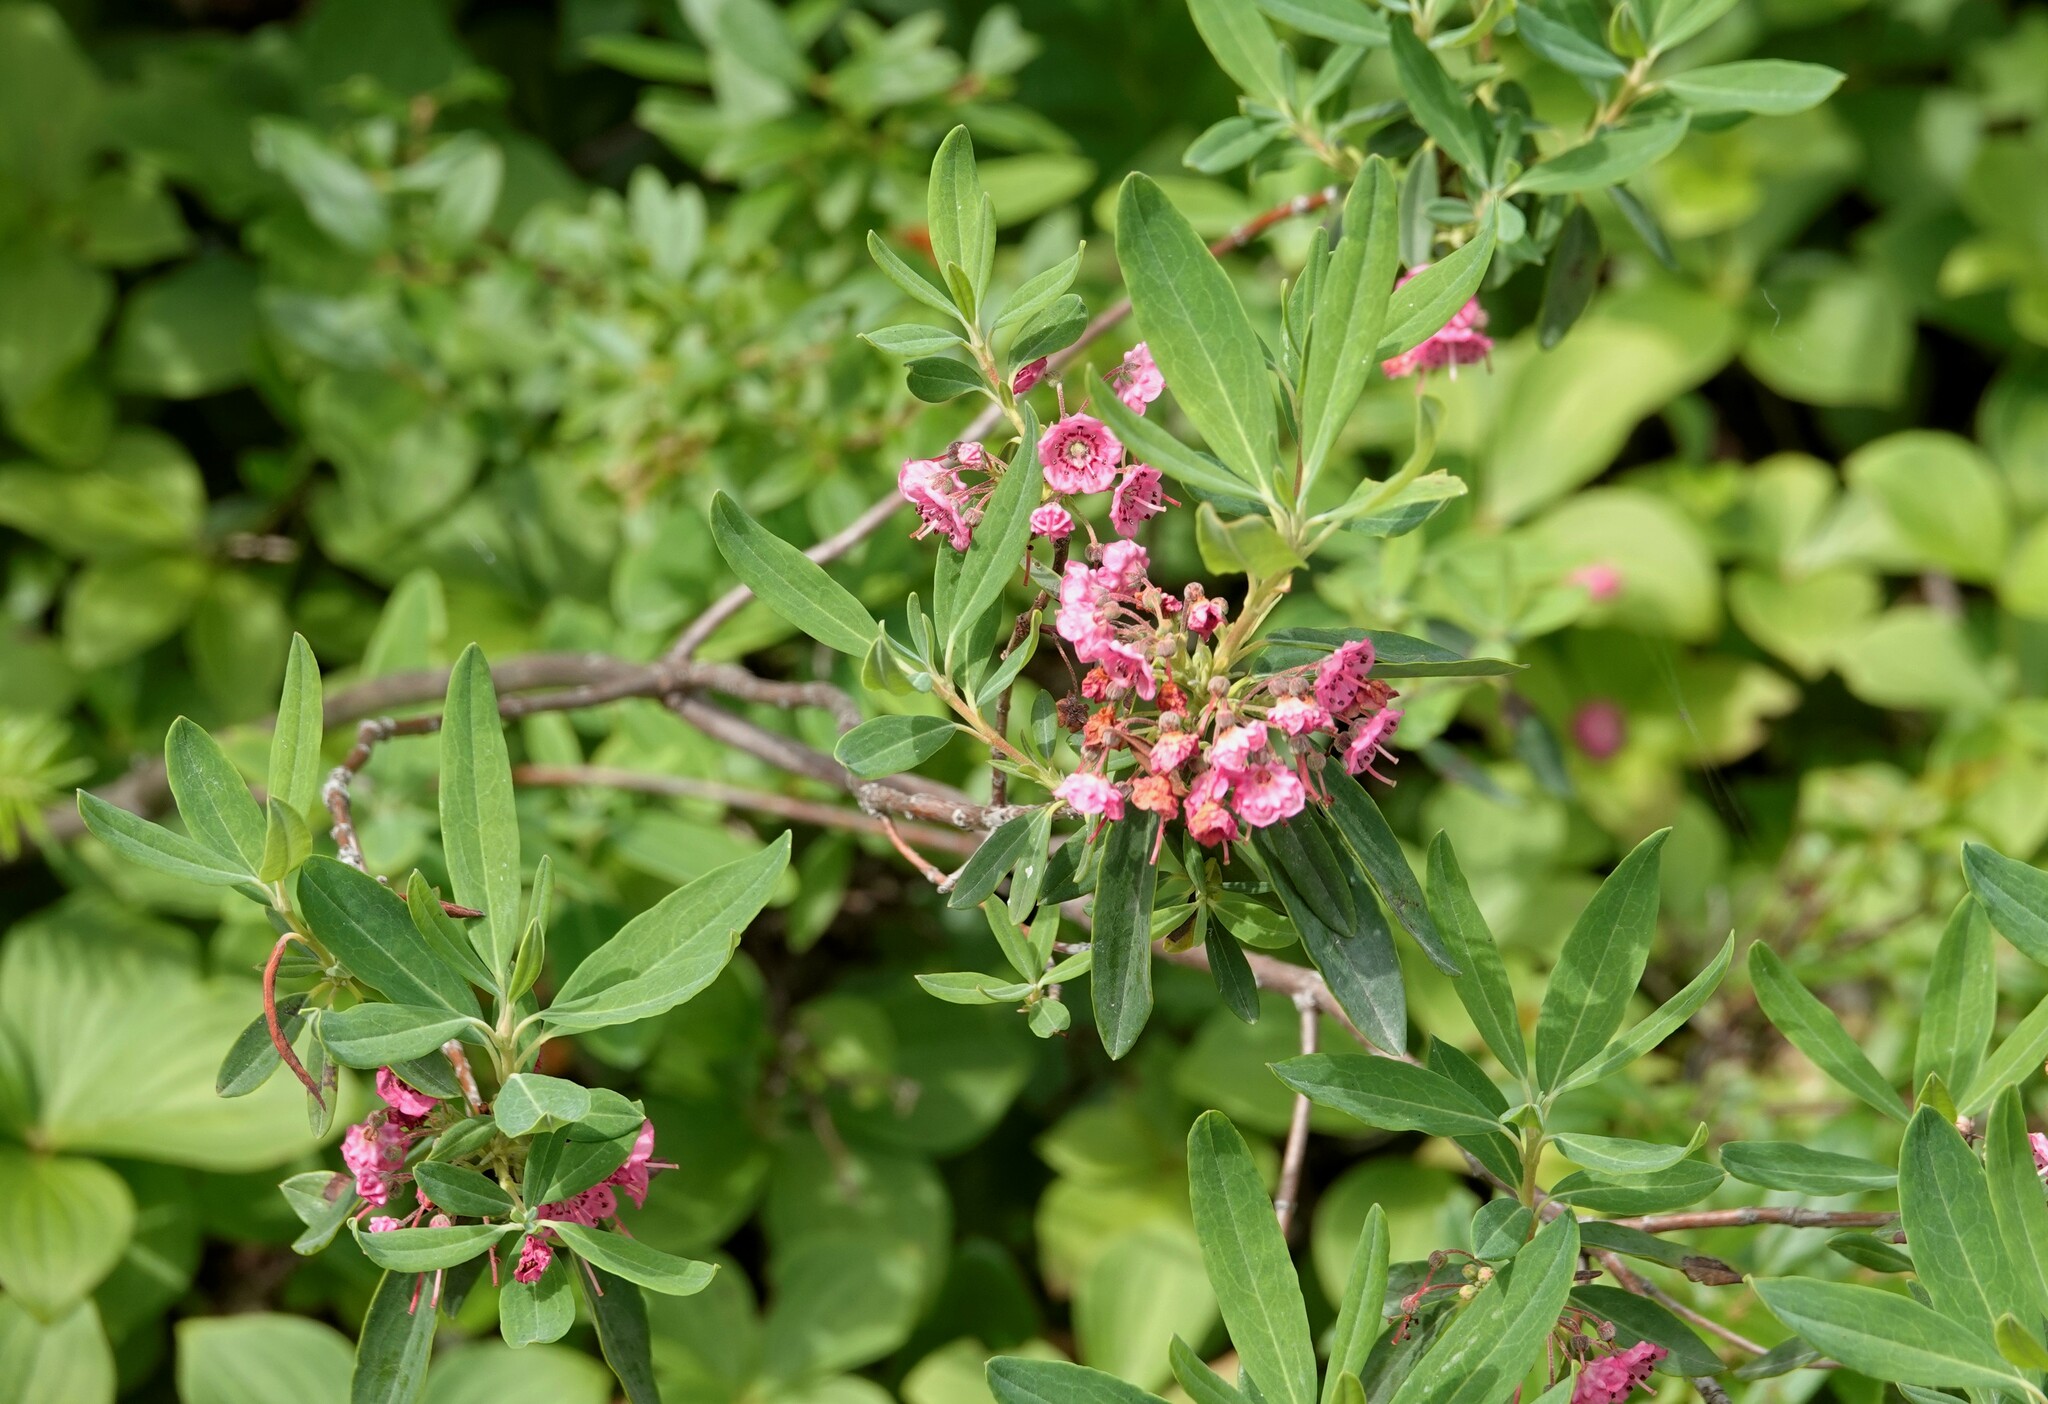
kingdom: Plantae
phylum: Tracheophyta
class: Magnoliopsida
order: Ericales
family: Ericaceae
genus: Kalmia
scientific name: Kalmia angustifolia
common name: Sheep-laurel
